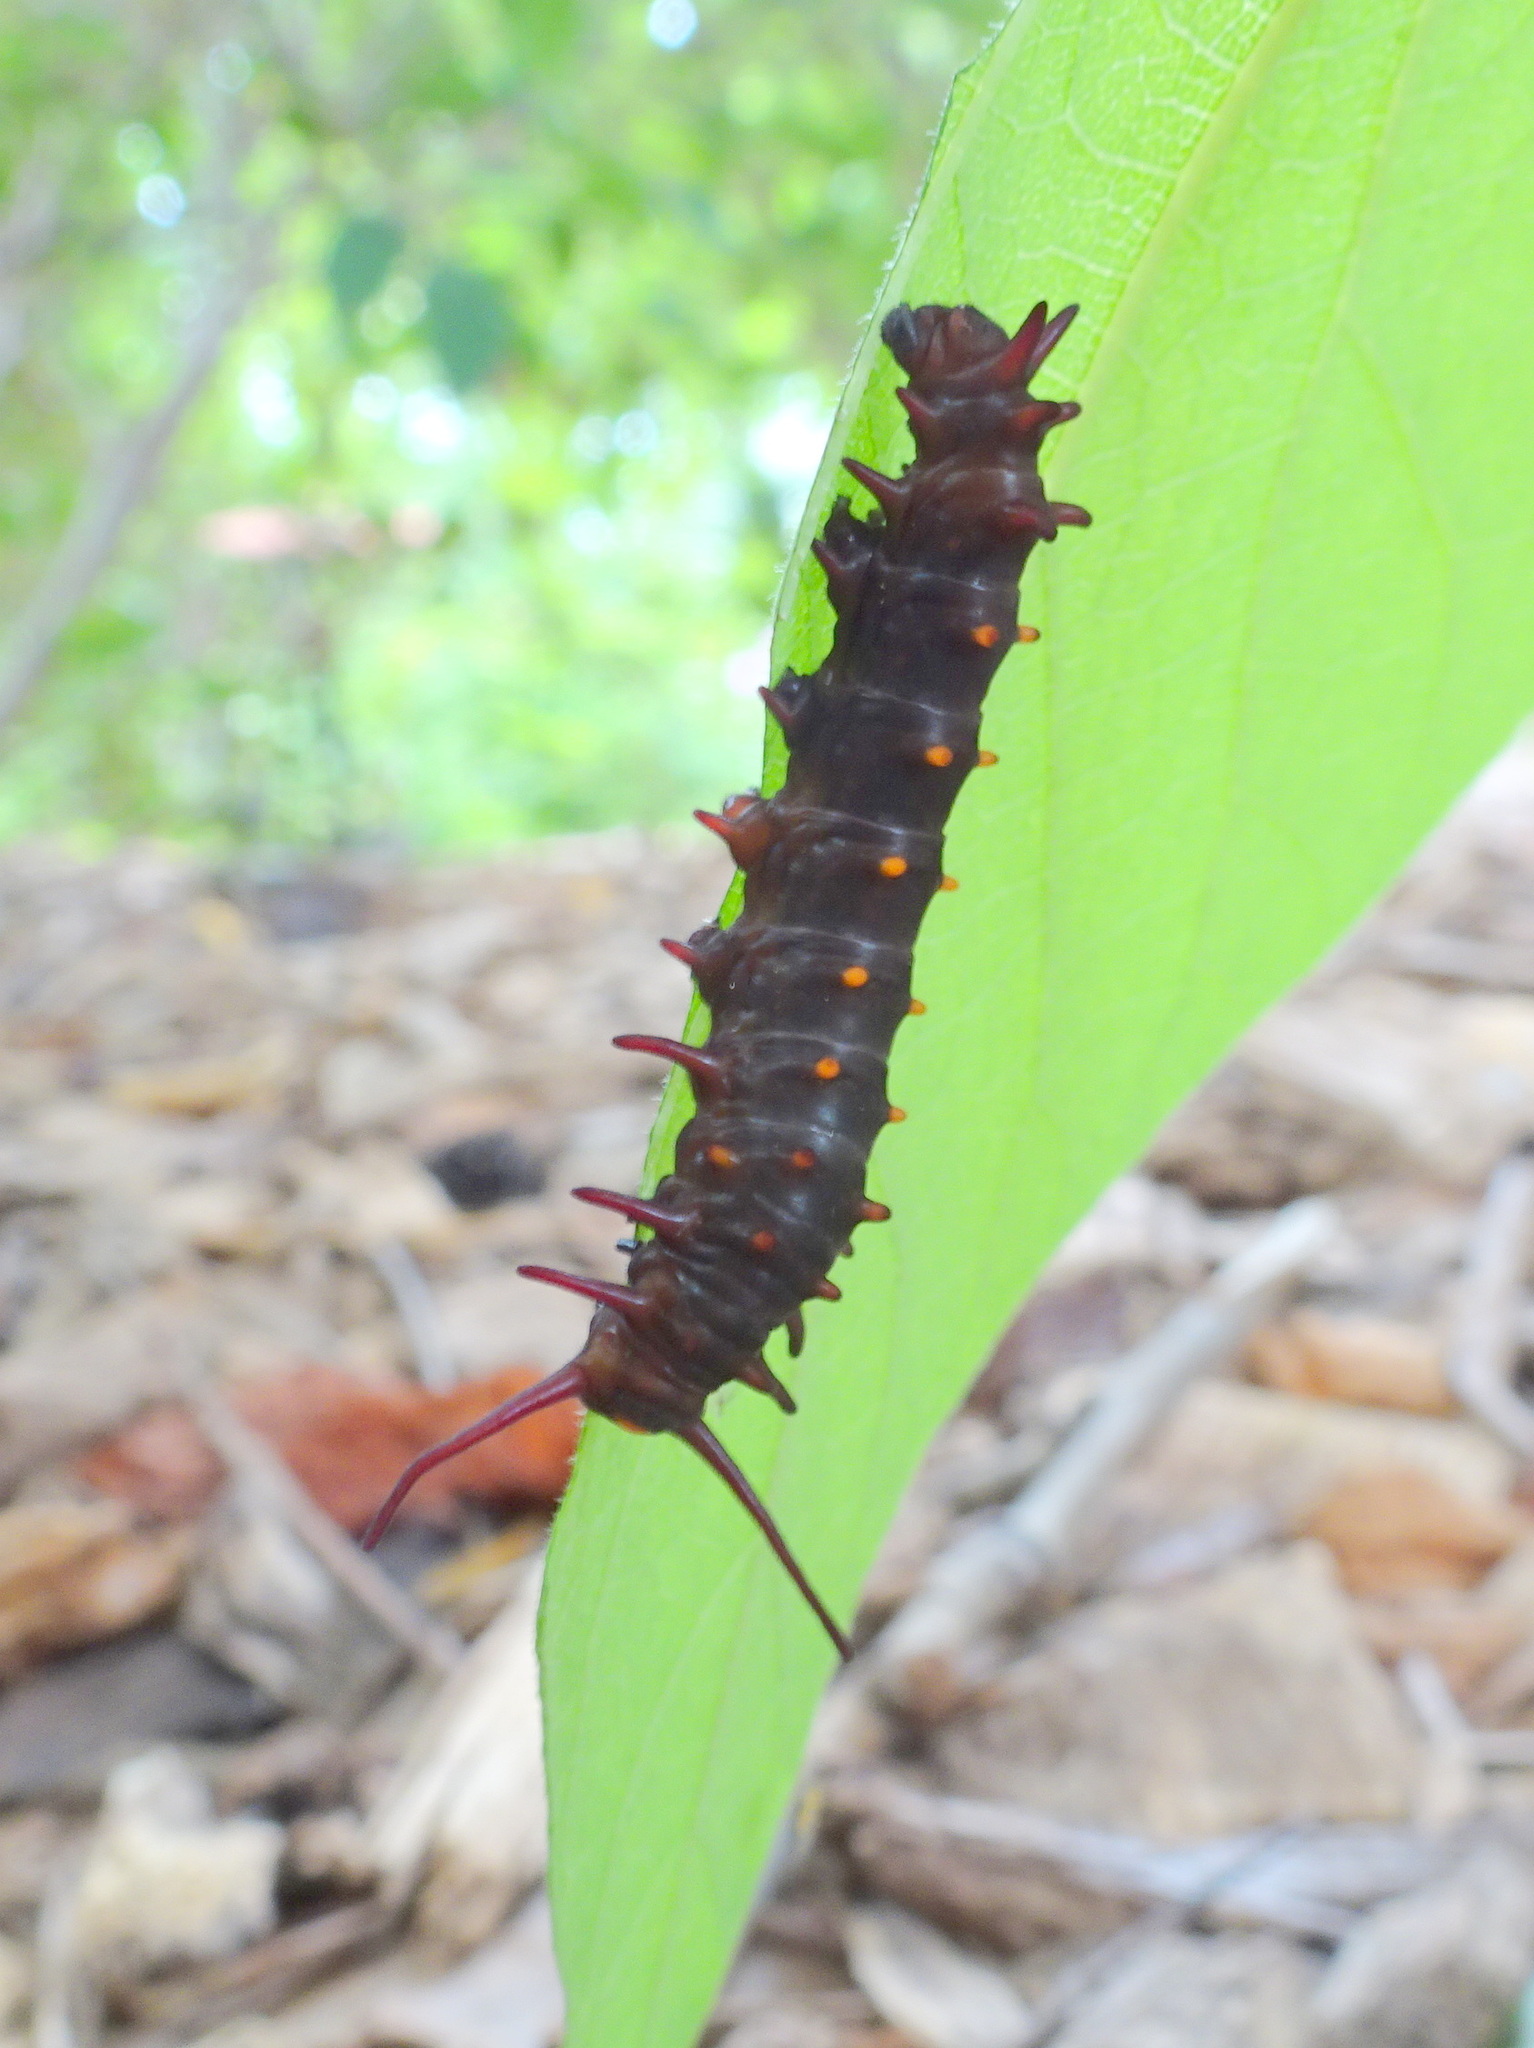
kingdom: Animalia
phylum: Arthropoda
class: Insecta
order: Lepidoptera
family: Papilionidae
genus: Battus
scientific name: Battus philenor
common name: Pipevine swallowtail
